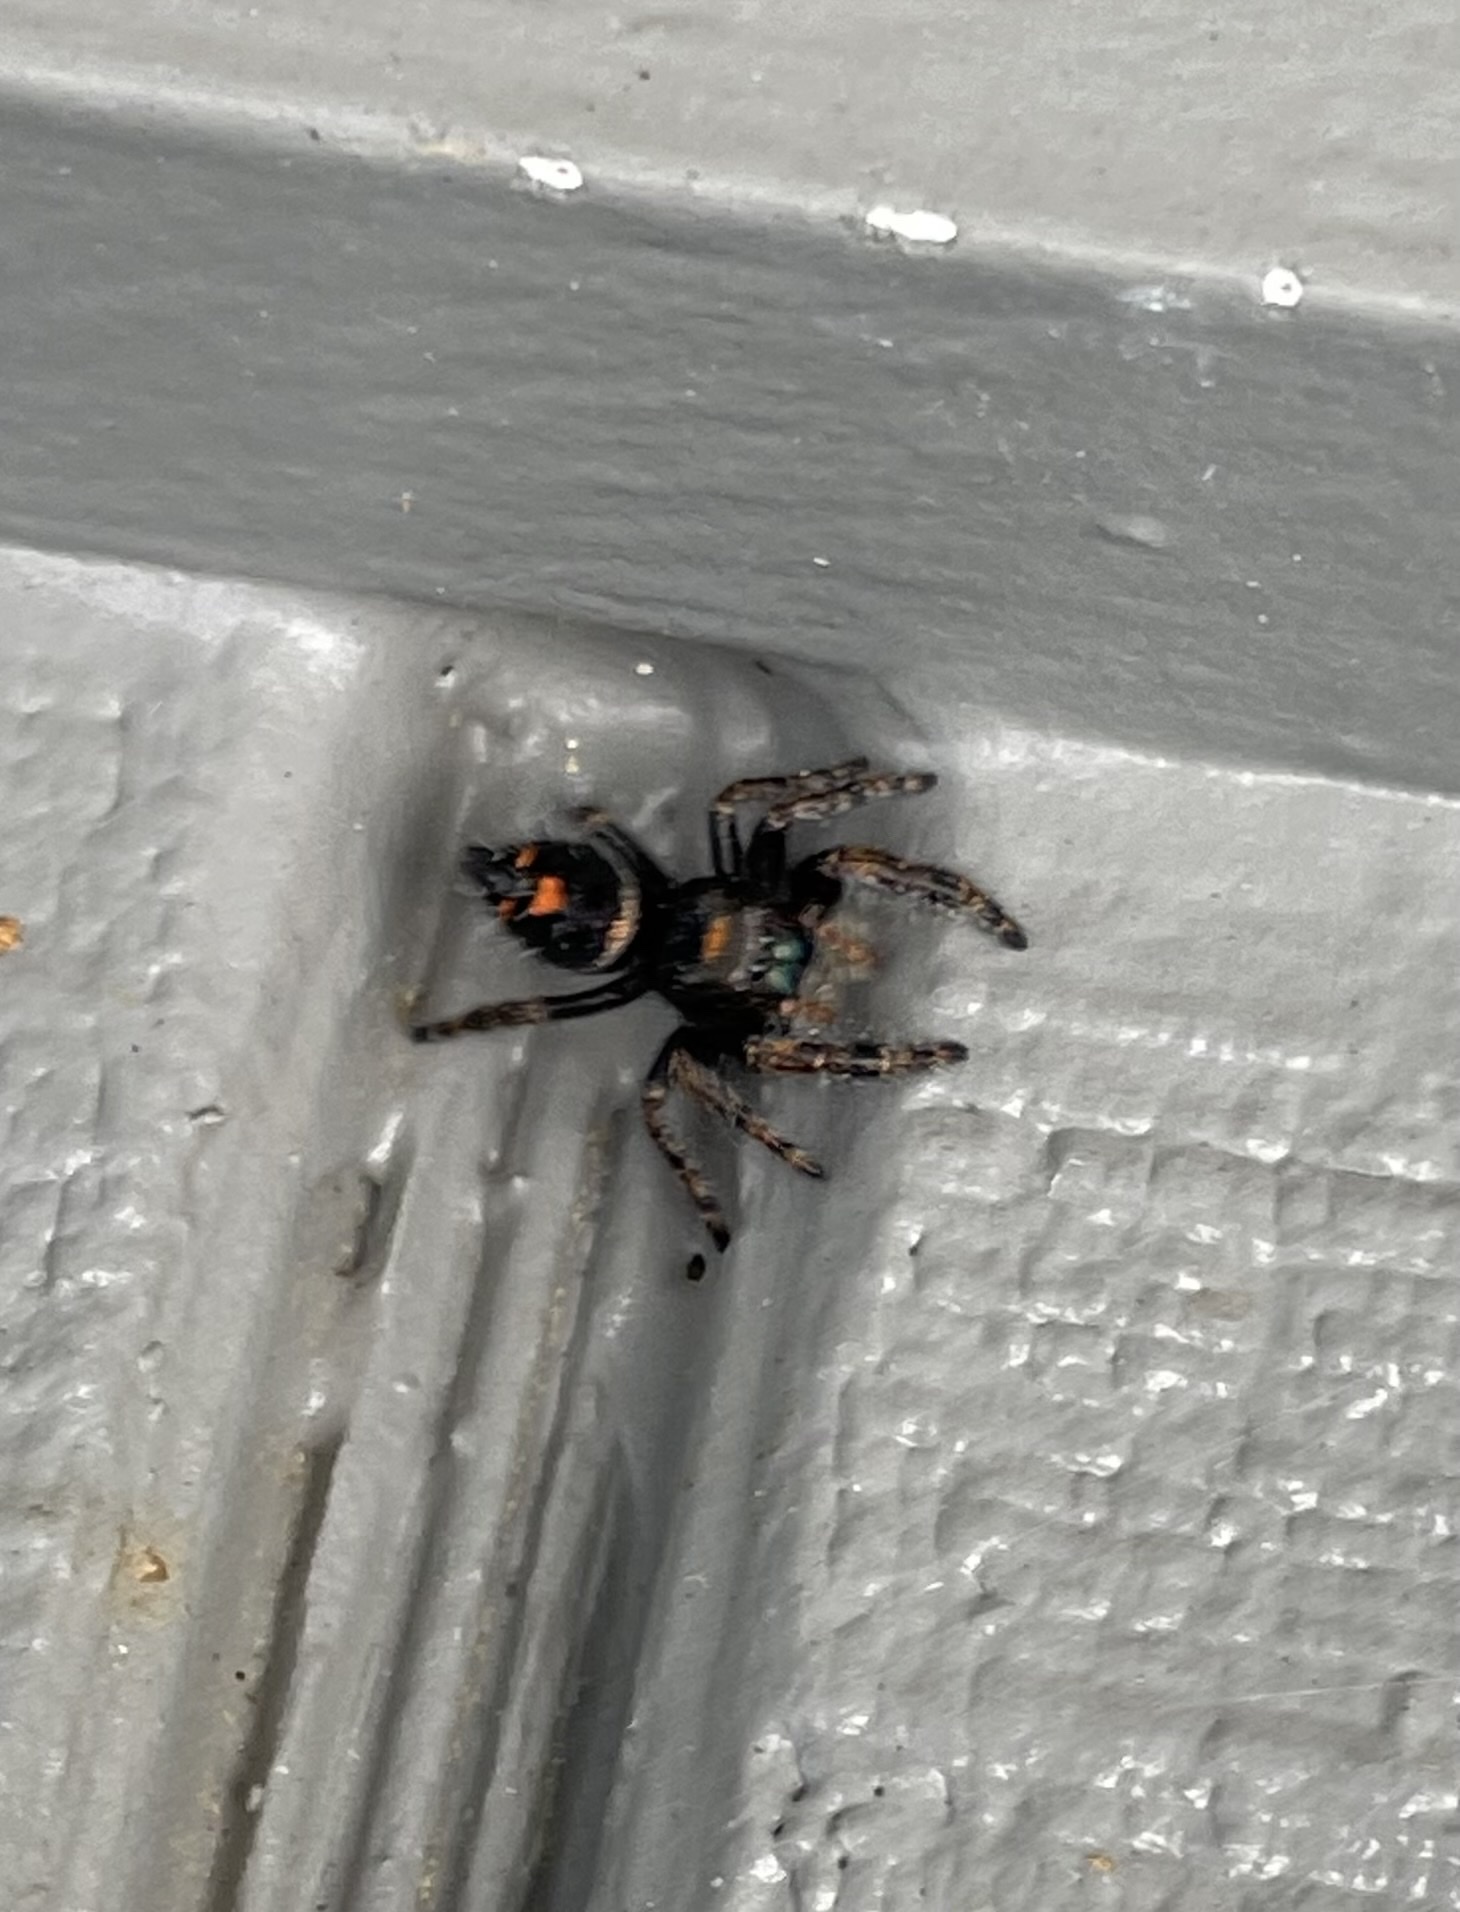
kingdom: Animalia
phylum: Arthropoda
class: Arachnida
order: Araneae
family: Salticidae
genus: Phidippus
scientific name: Phidippus audax
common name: Bold jumper
